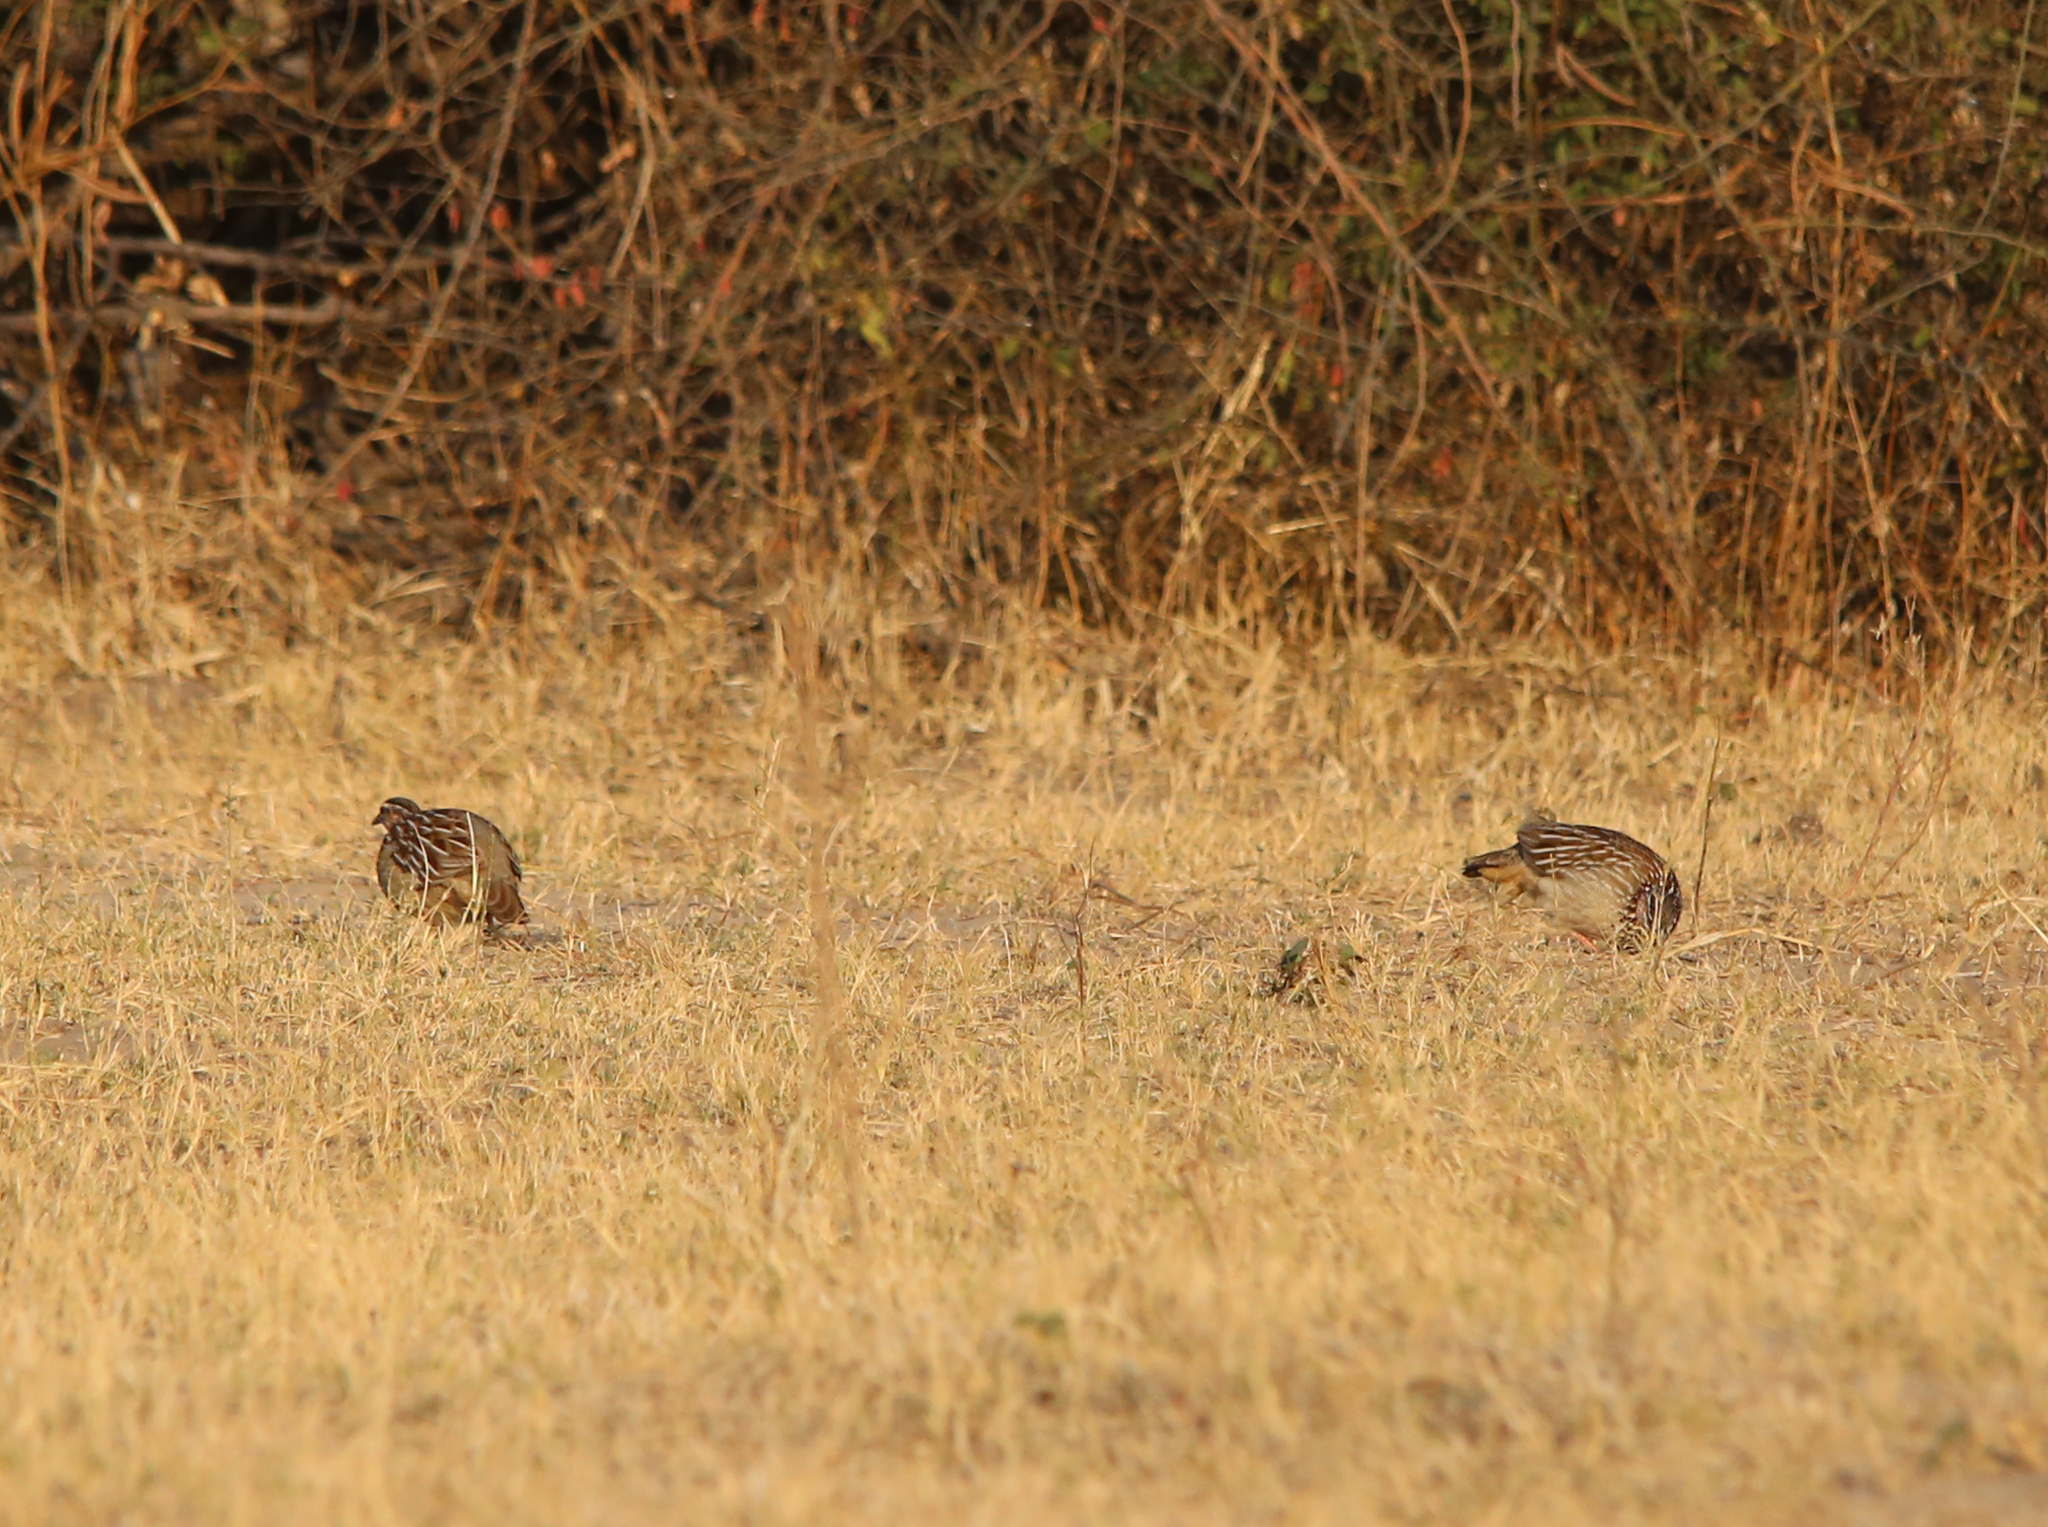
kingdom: Animalia
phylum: Chordata
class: Aves
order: Galliformes
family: Phasianidae
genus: Ortygornis
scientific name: Ortygornis sephaena
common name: Crested francolin
